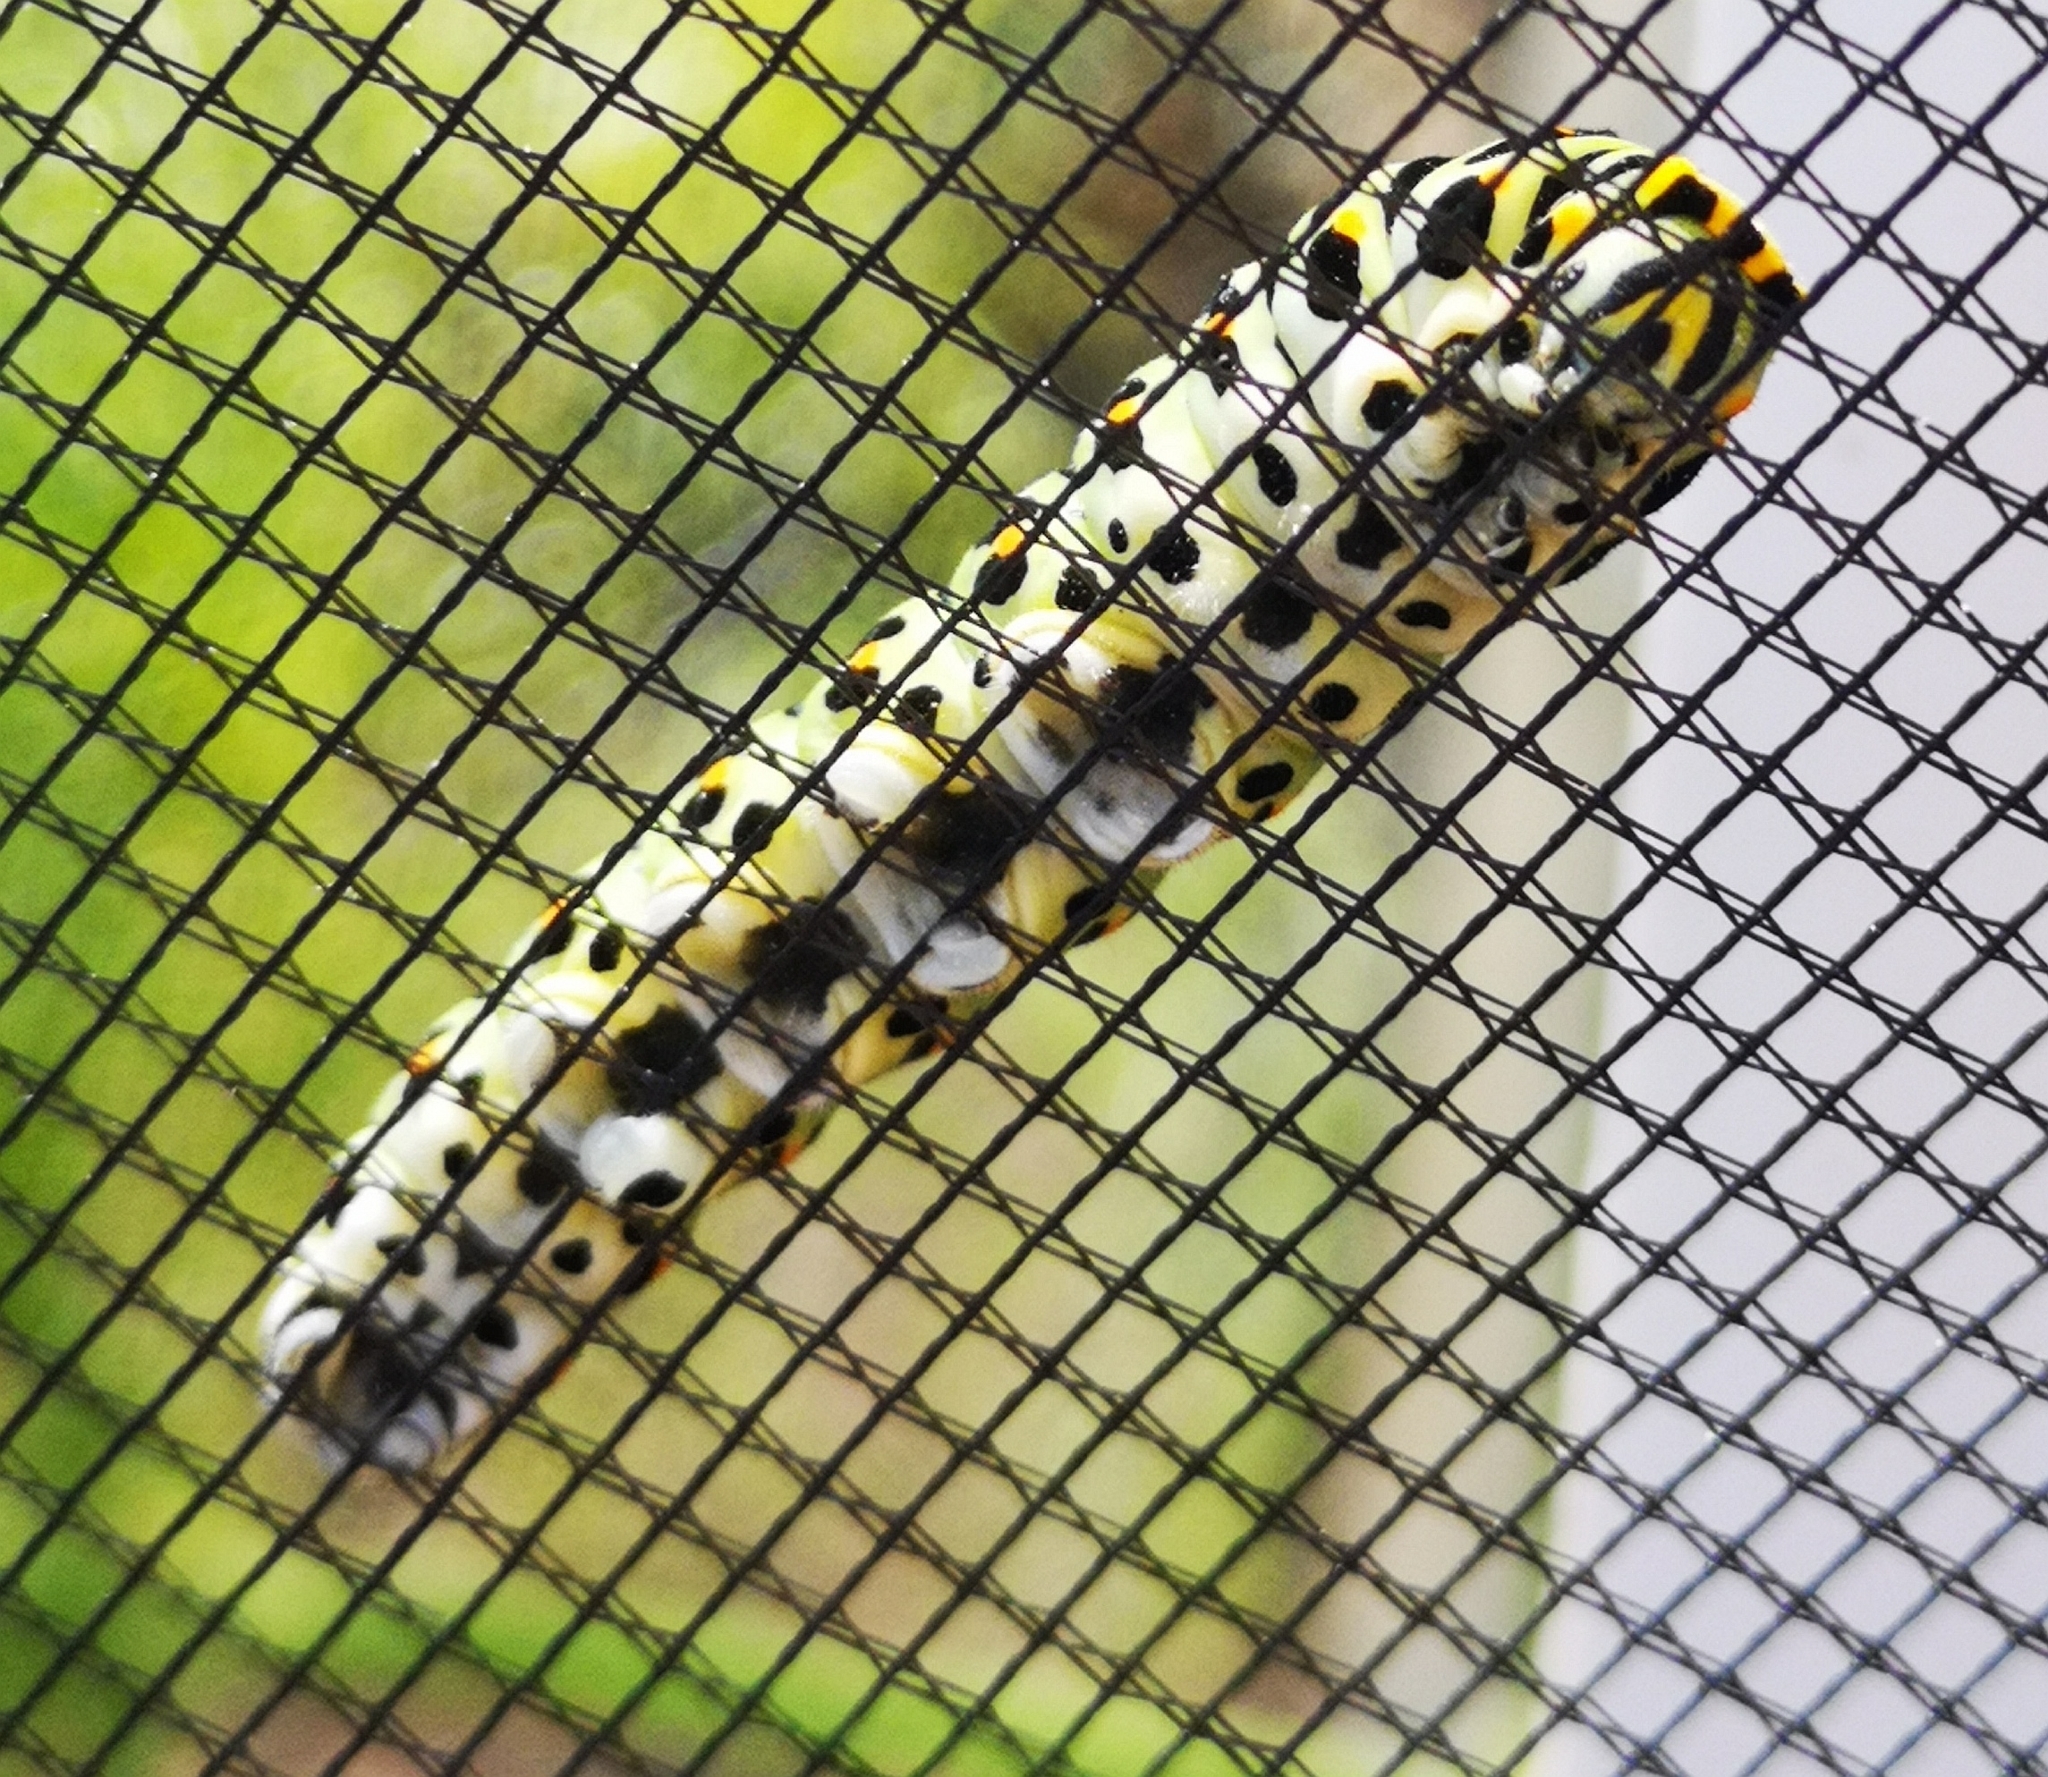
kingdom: Animalia
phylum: Arthropoda
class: Insecta
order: Lepidoptera
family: Papilionidae
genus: Papilio
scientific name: Papilio machaon
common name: Swallowtail
